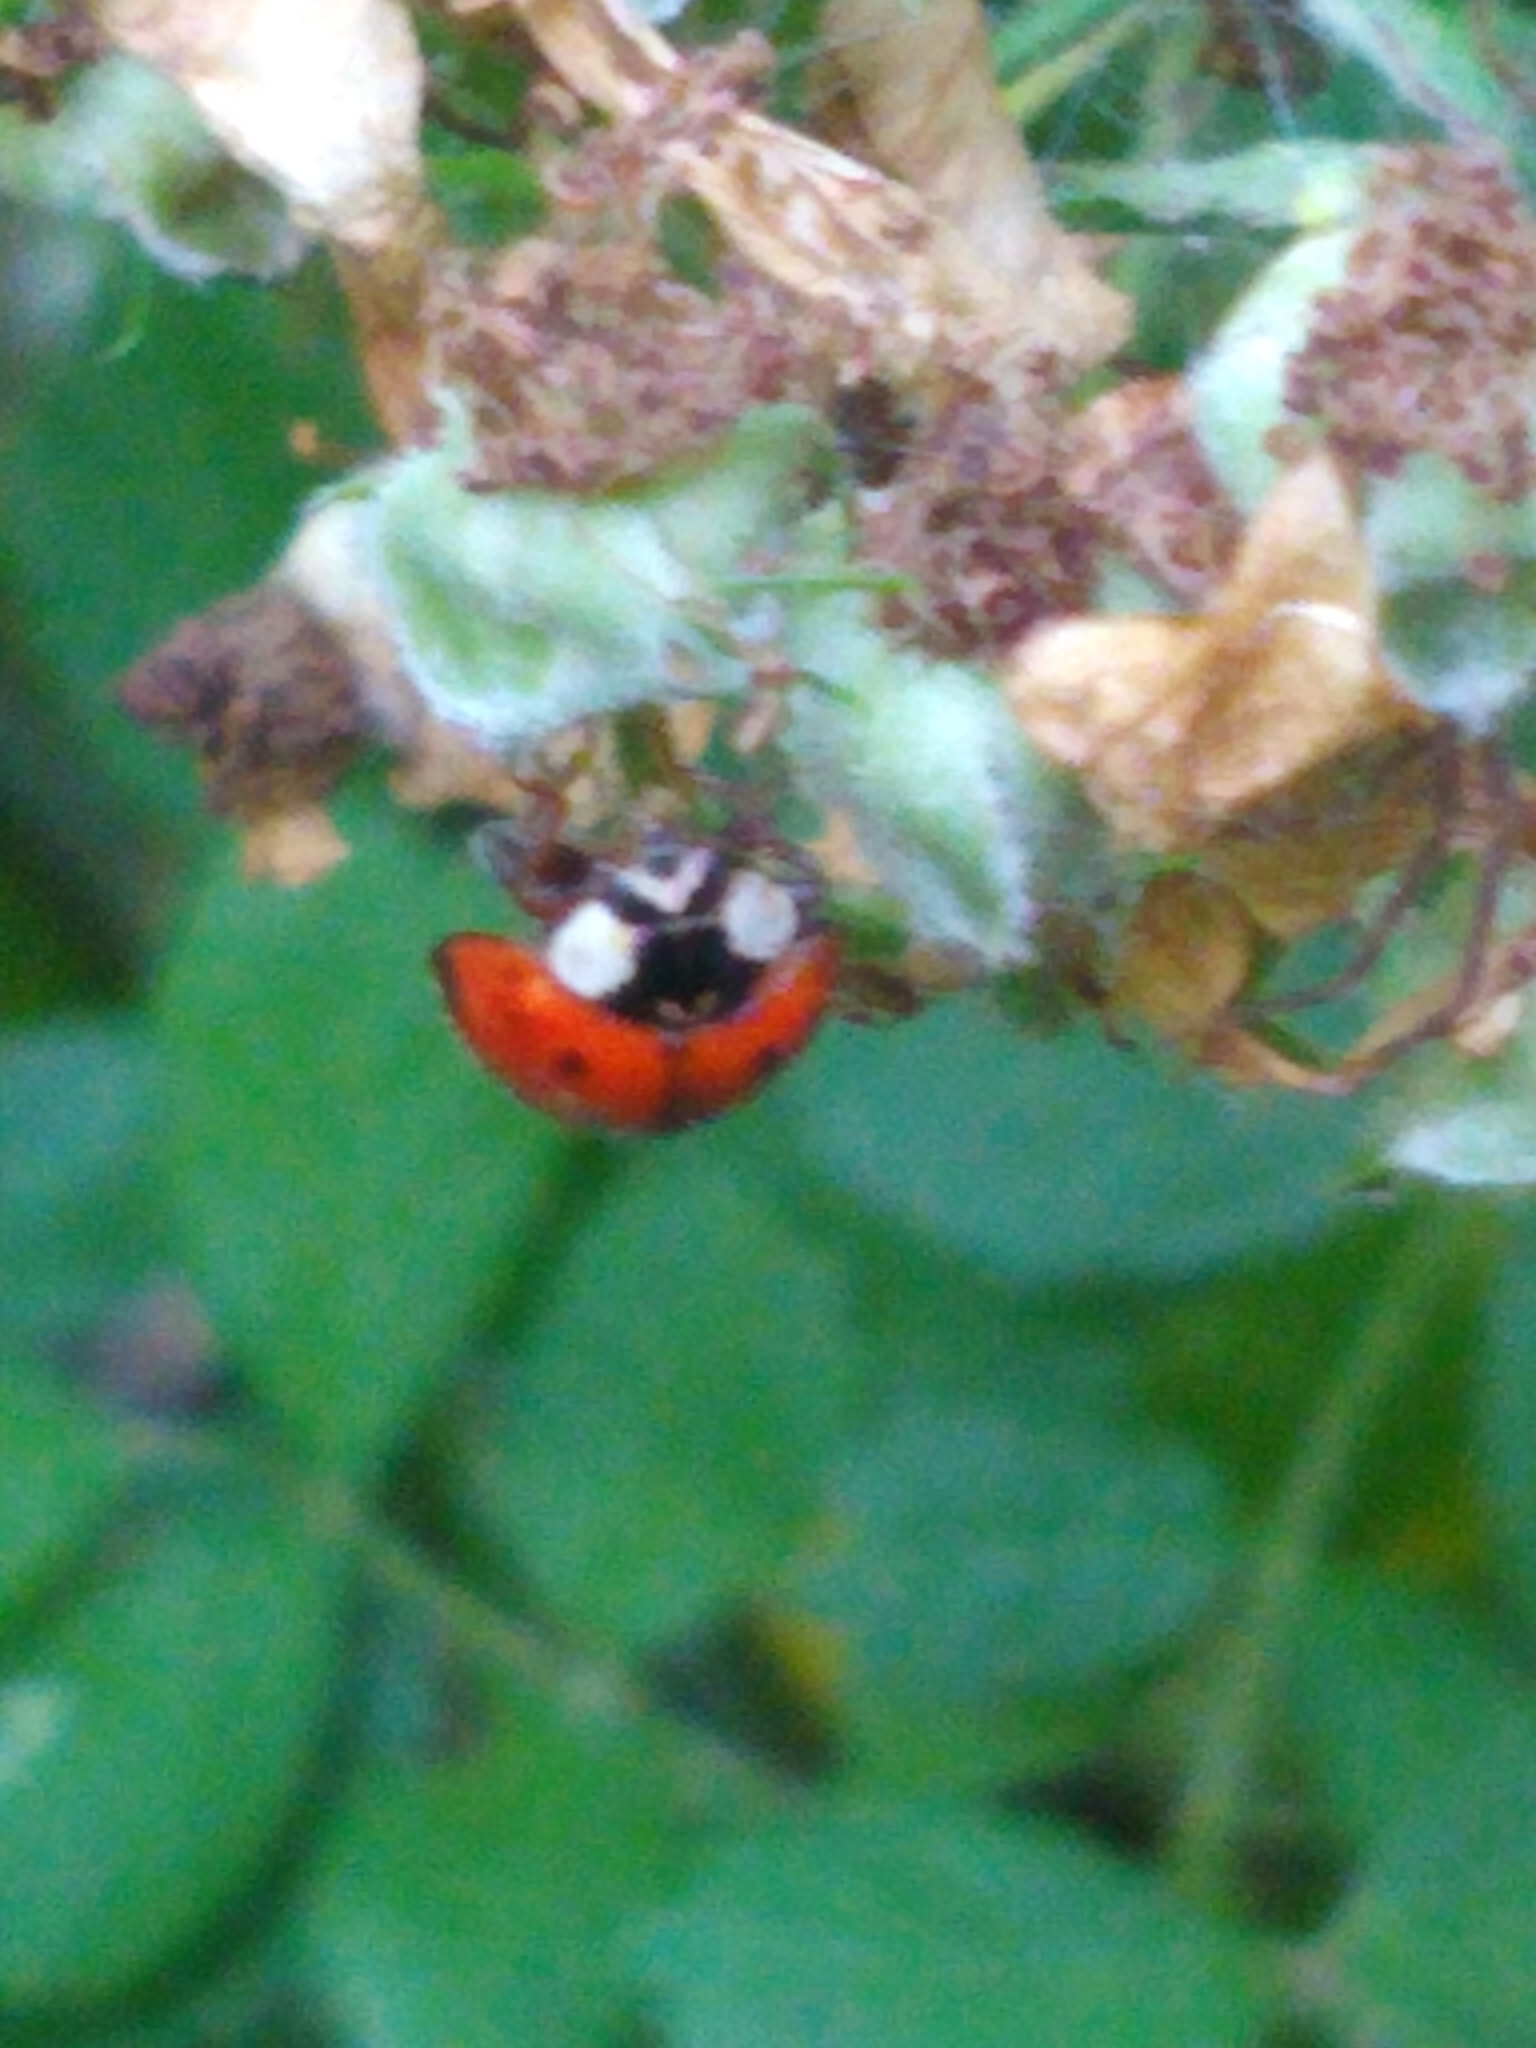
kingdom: Animalia
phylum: Arthropoda
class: Insecta
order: Coleoptera
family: Coccinellidae
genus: Harmonia
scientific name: Harmonia axyridis
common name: Harlequin ladybird
